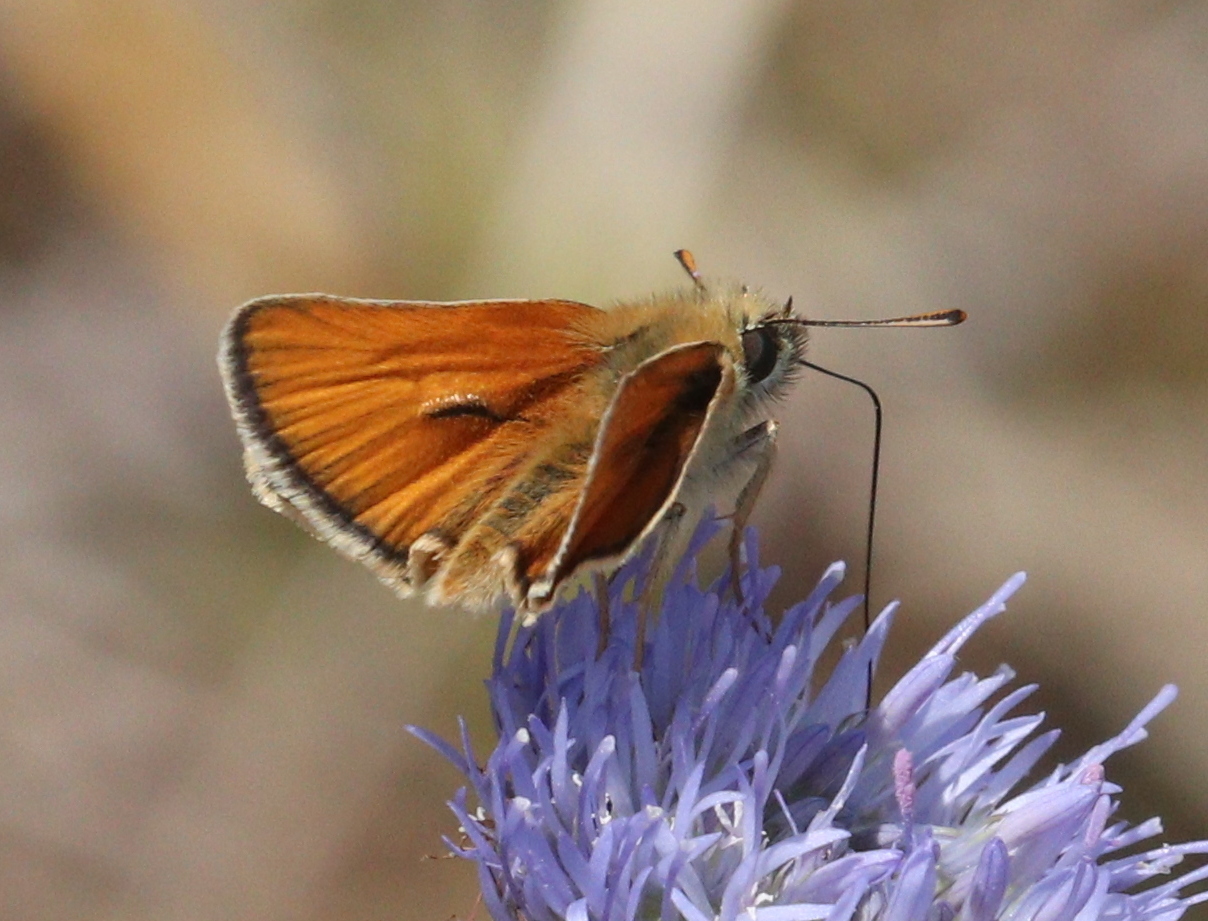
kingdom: Animalia
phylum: Arthropoda
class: Insecta
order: Lepidoptera
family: Hesperiidae
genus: Thymelicus
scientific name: Thymelicus sylvestris
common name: Small skipper
